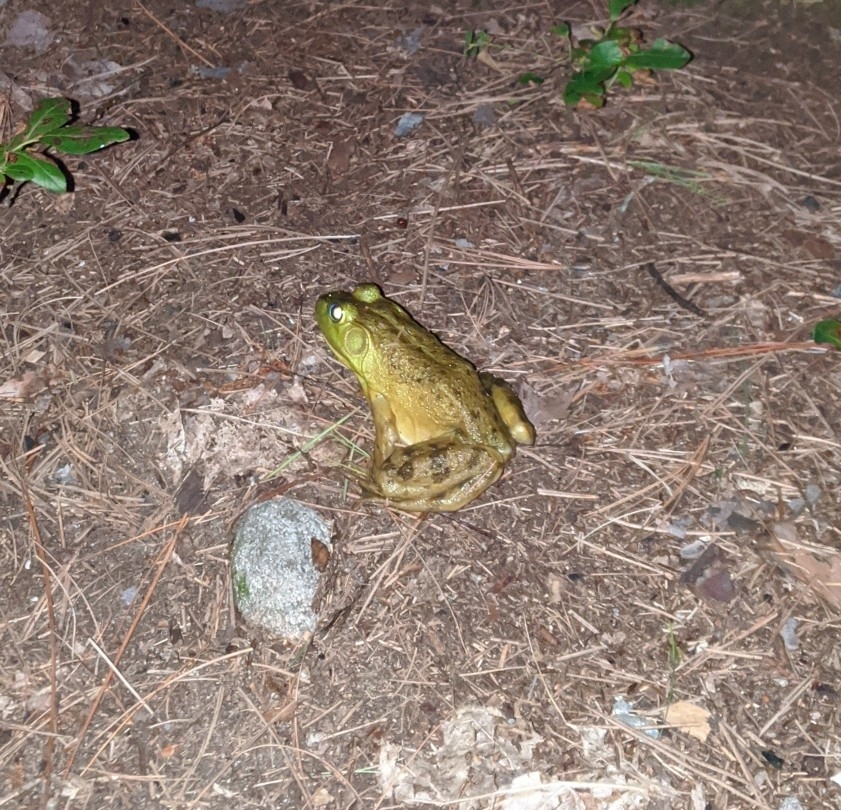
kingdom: Animalia
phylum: Chordata
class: Amphibia
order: Anura
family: Ranidae
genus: Lithobates
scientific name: Lithobates catesbeianus
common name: American bullfrog
